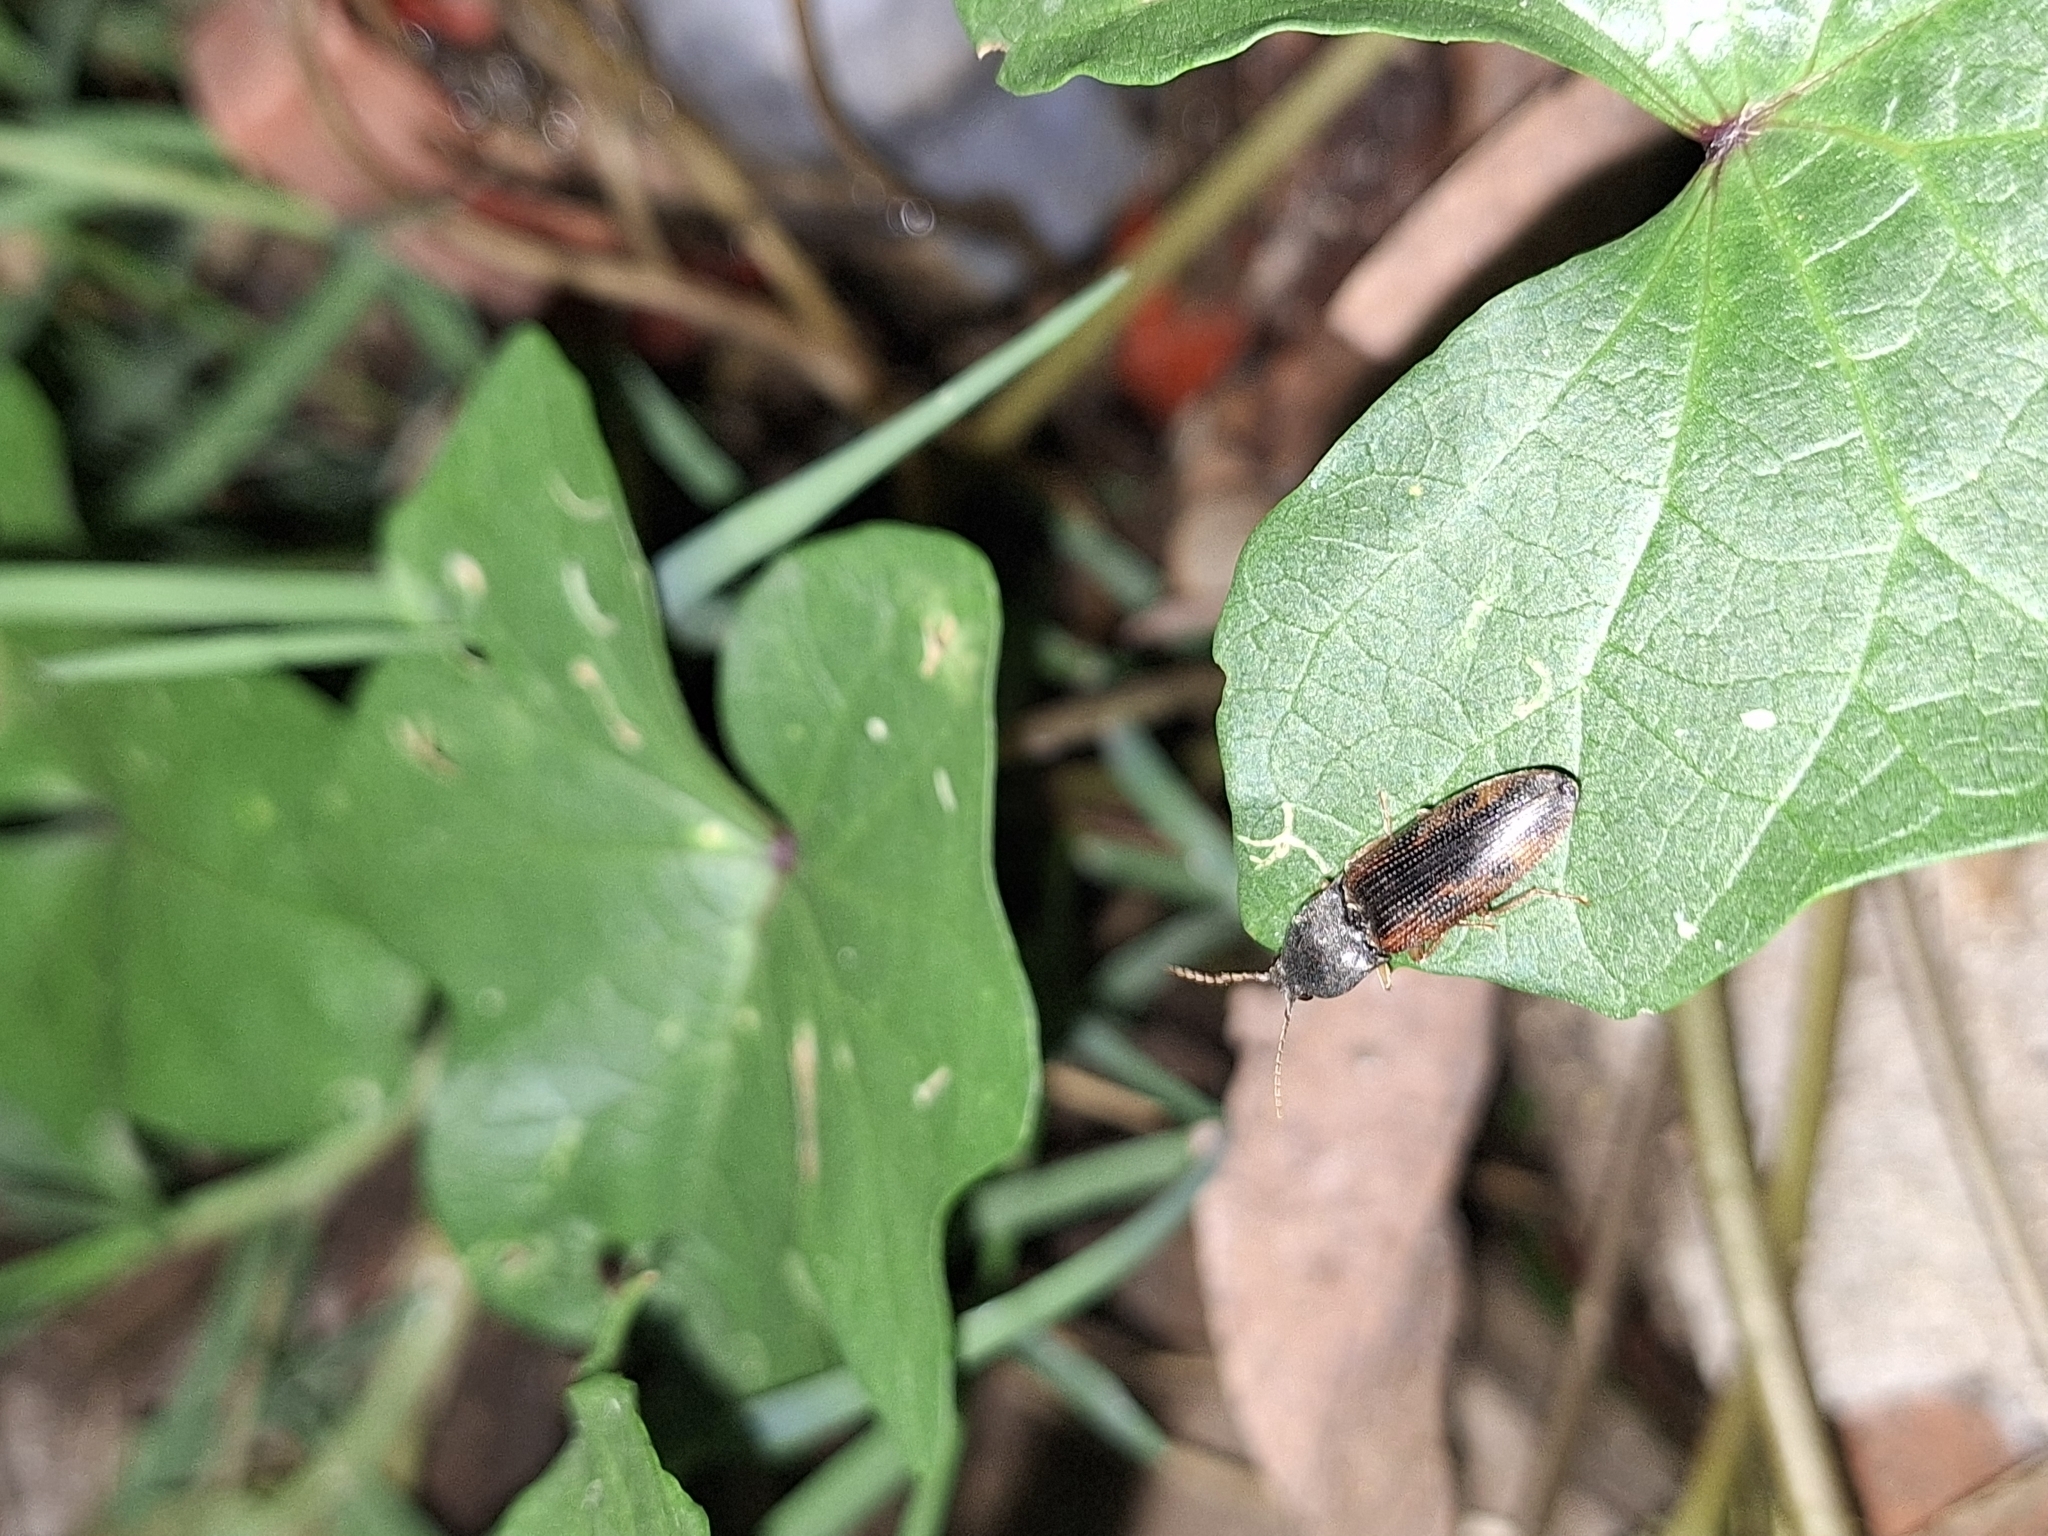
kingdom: Animalia
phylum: Arthropoda
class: Insecta
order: Coleoptera
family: Elateridae
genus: Monocrepidius
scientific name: Monocrepidius
